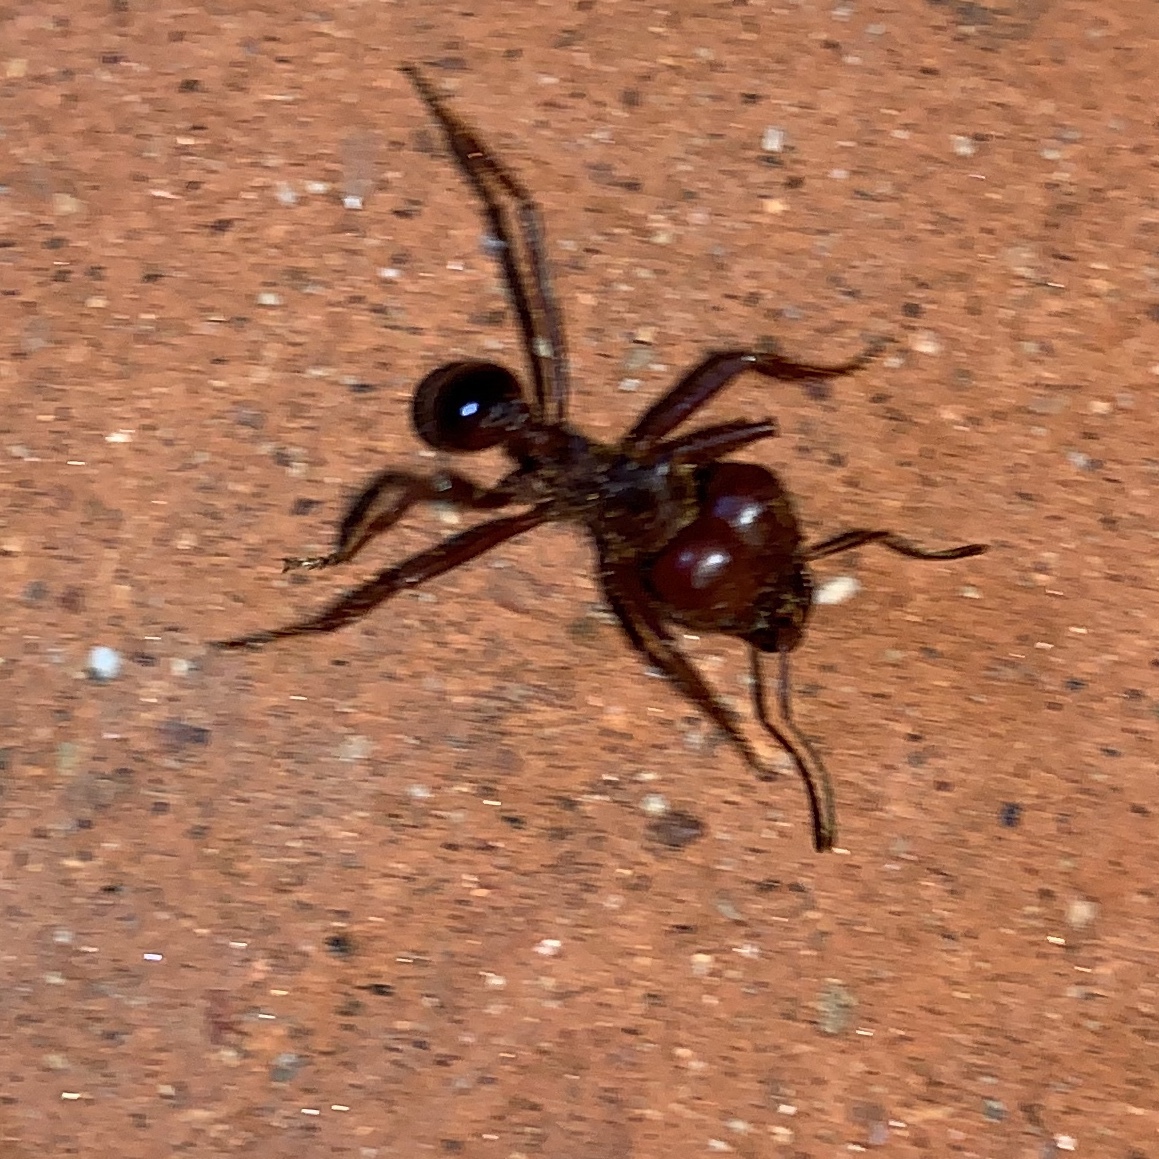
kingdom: Animalia
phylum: Arthropoda
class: Insecta
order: Hymenoptera
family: Formicidae
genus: Atta
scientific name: Atta mexicana
